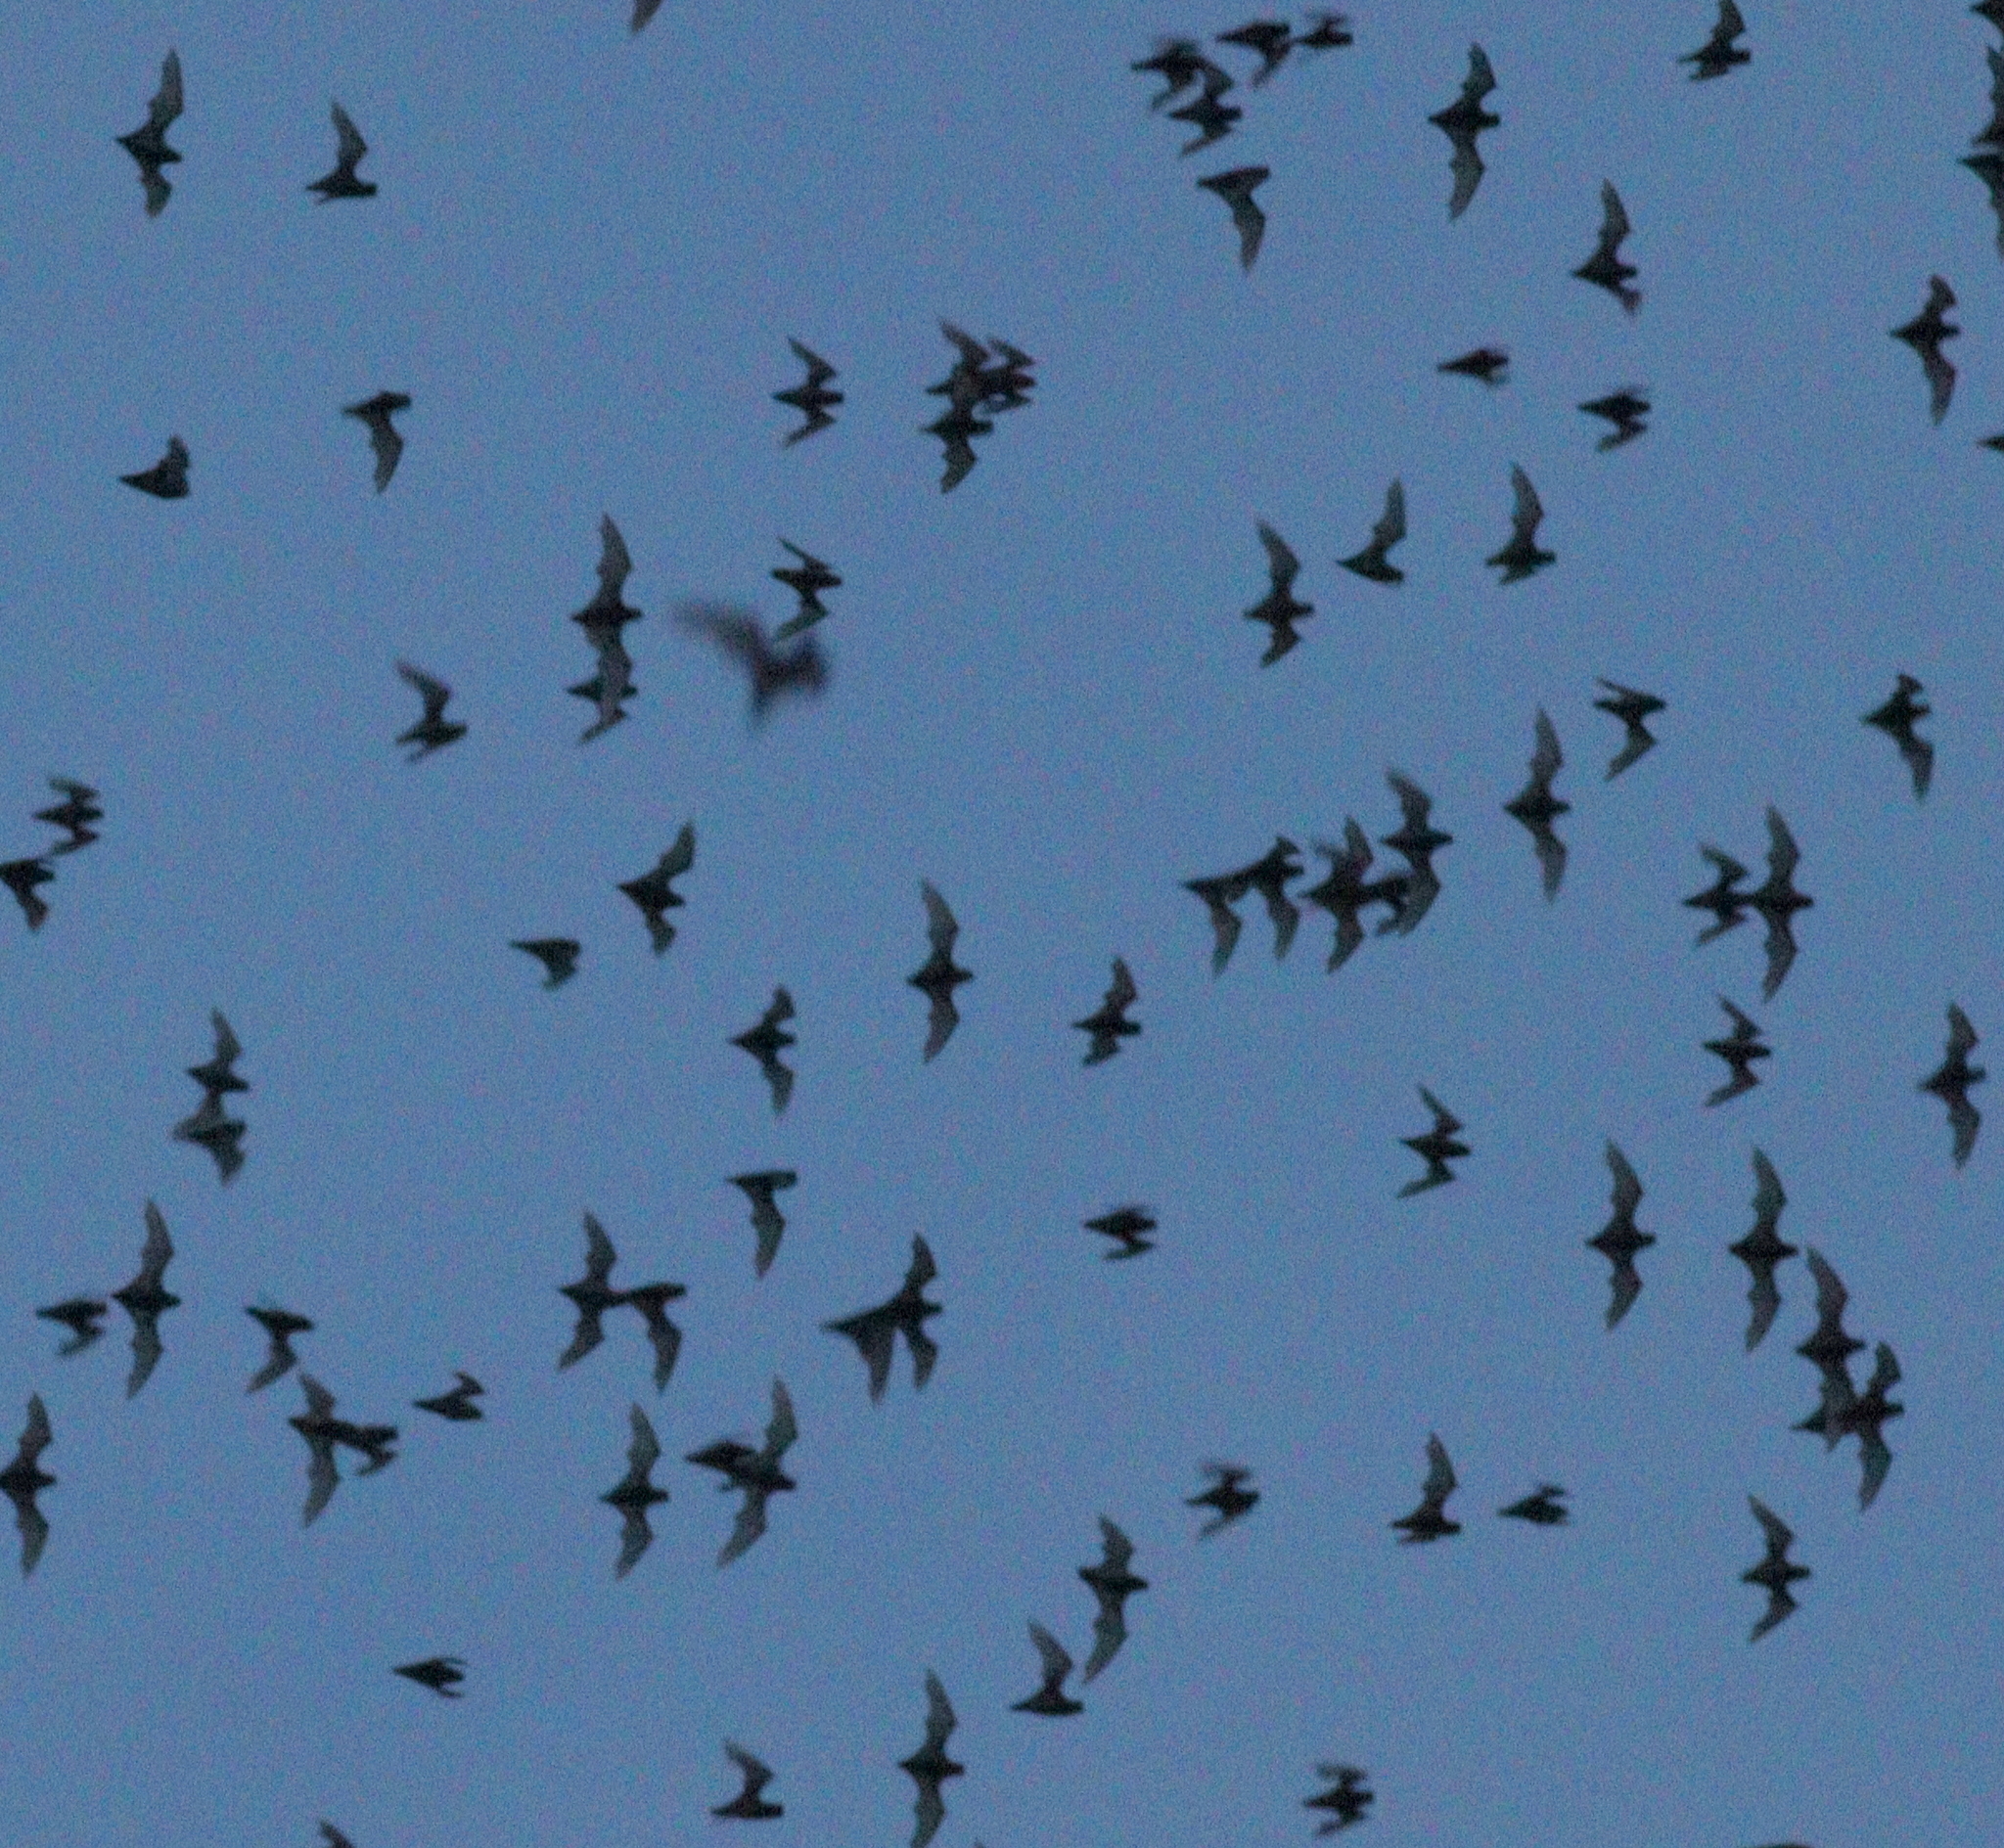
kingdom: Animalia
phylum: Chordata
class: Mammalia
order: Chiroptera
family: Molossidae
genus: Mops
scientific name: Mops
